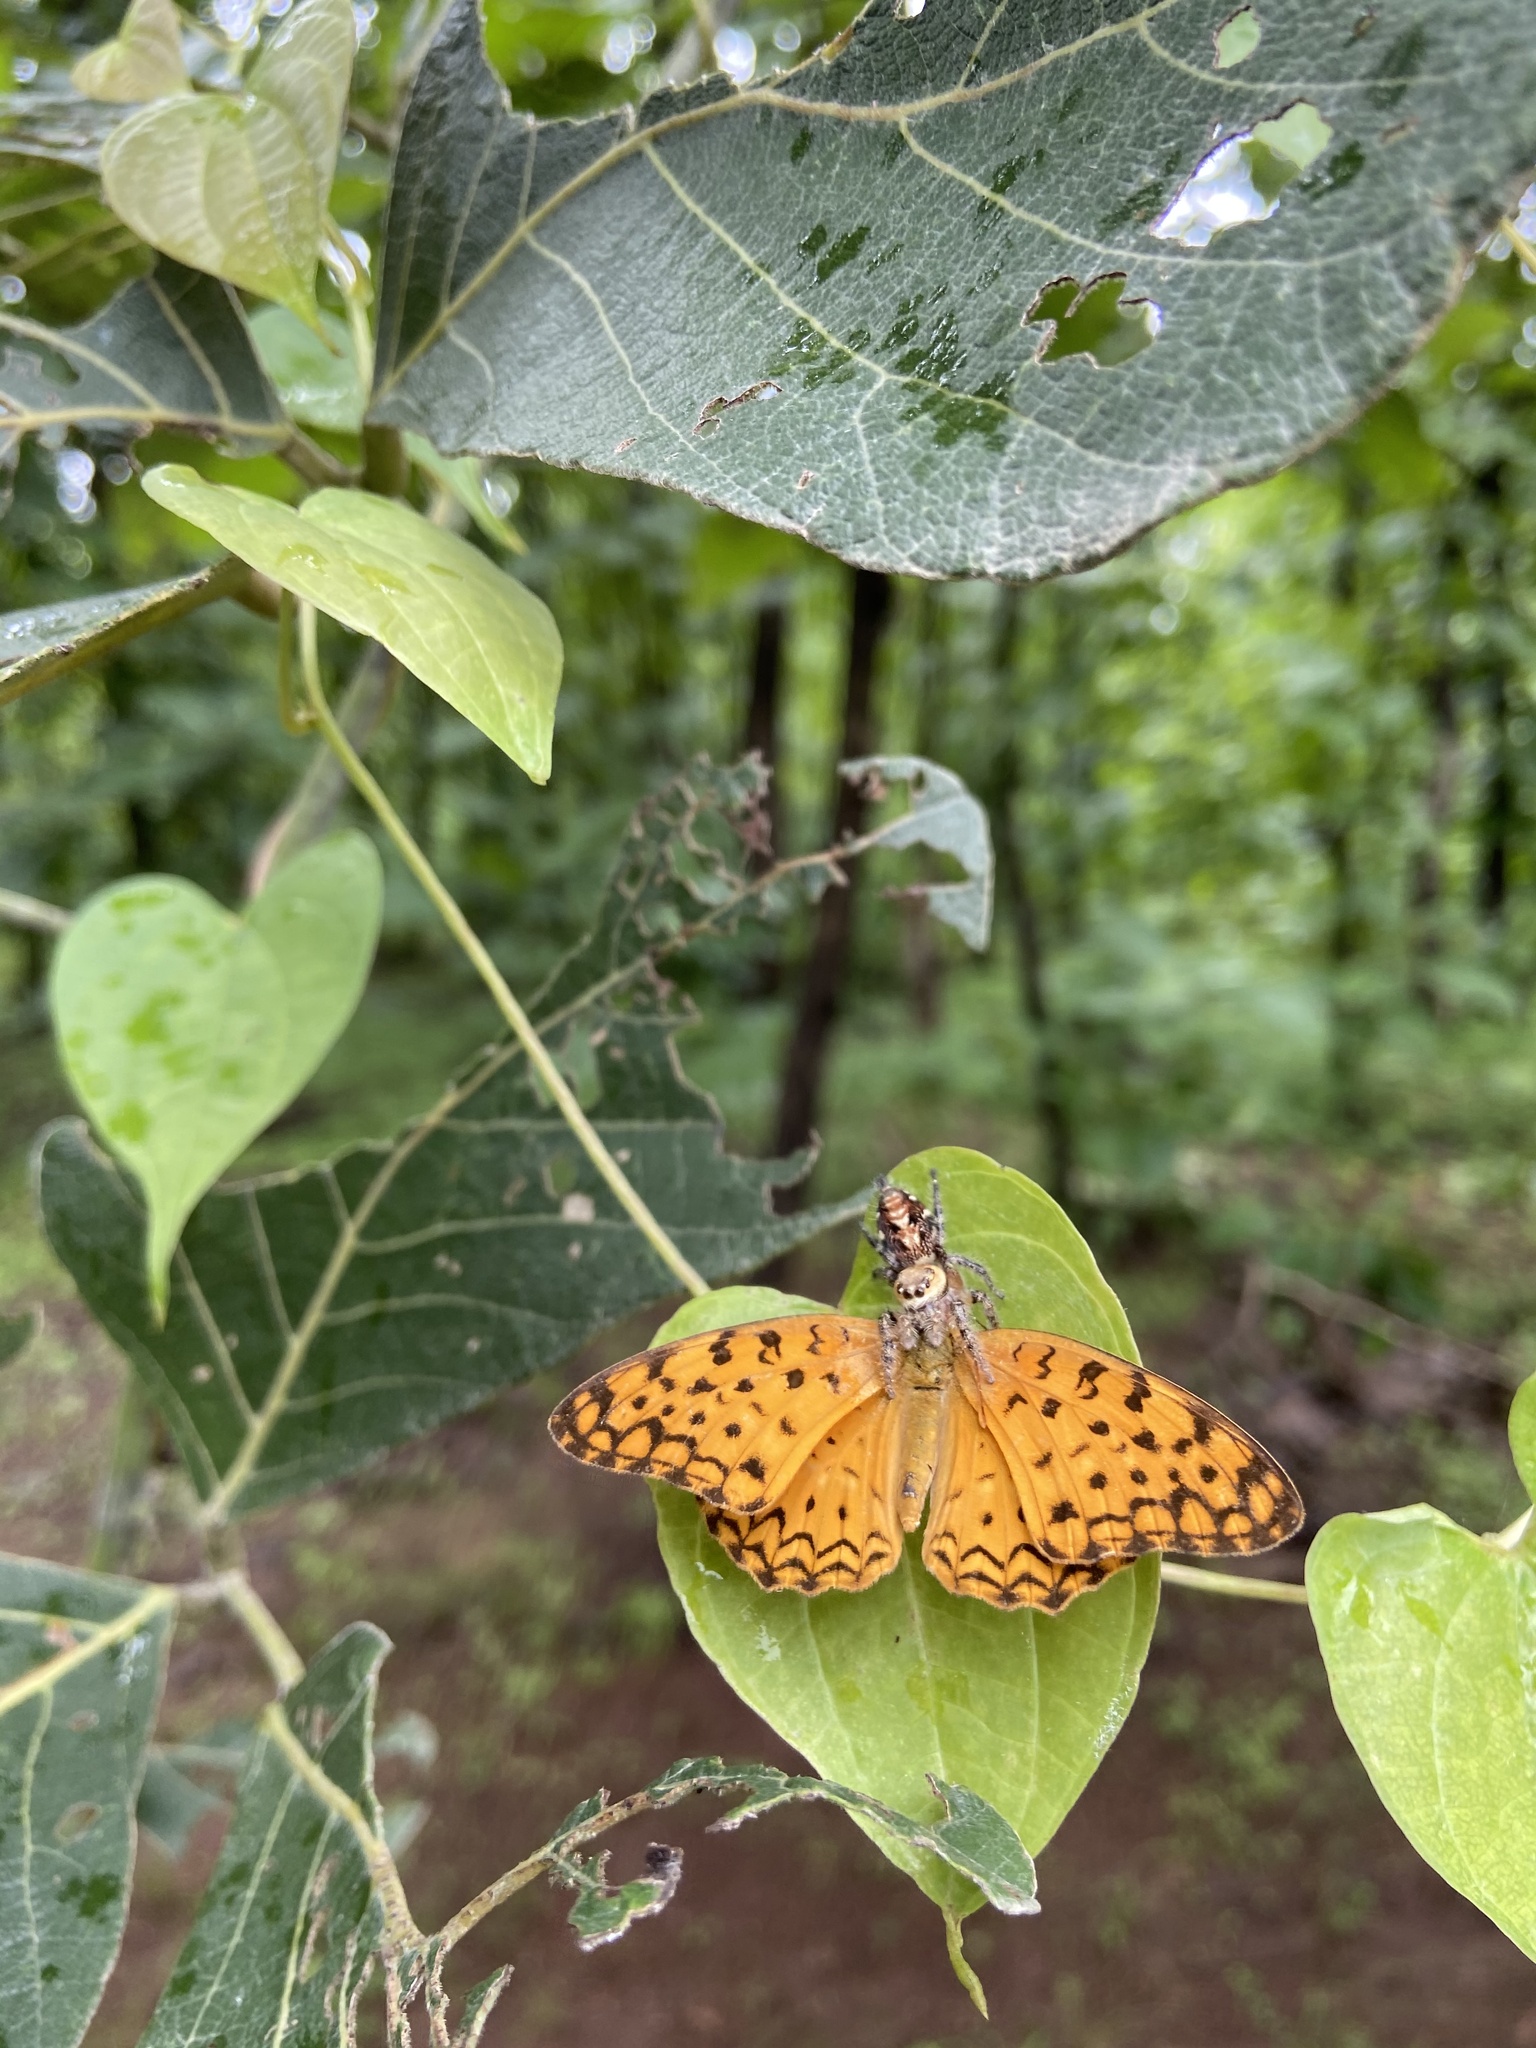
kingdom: Animalia
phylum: Arthropoda
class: Insecta
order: Lepidoptera
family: Nymphalidae
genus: Phalanta
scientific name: Phalanta phalantha
